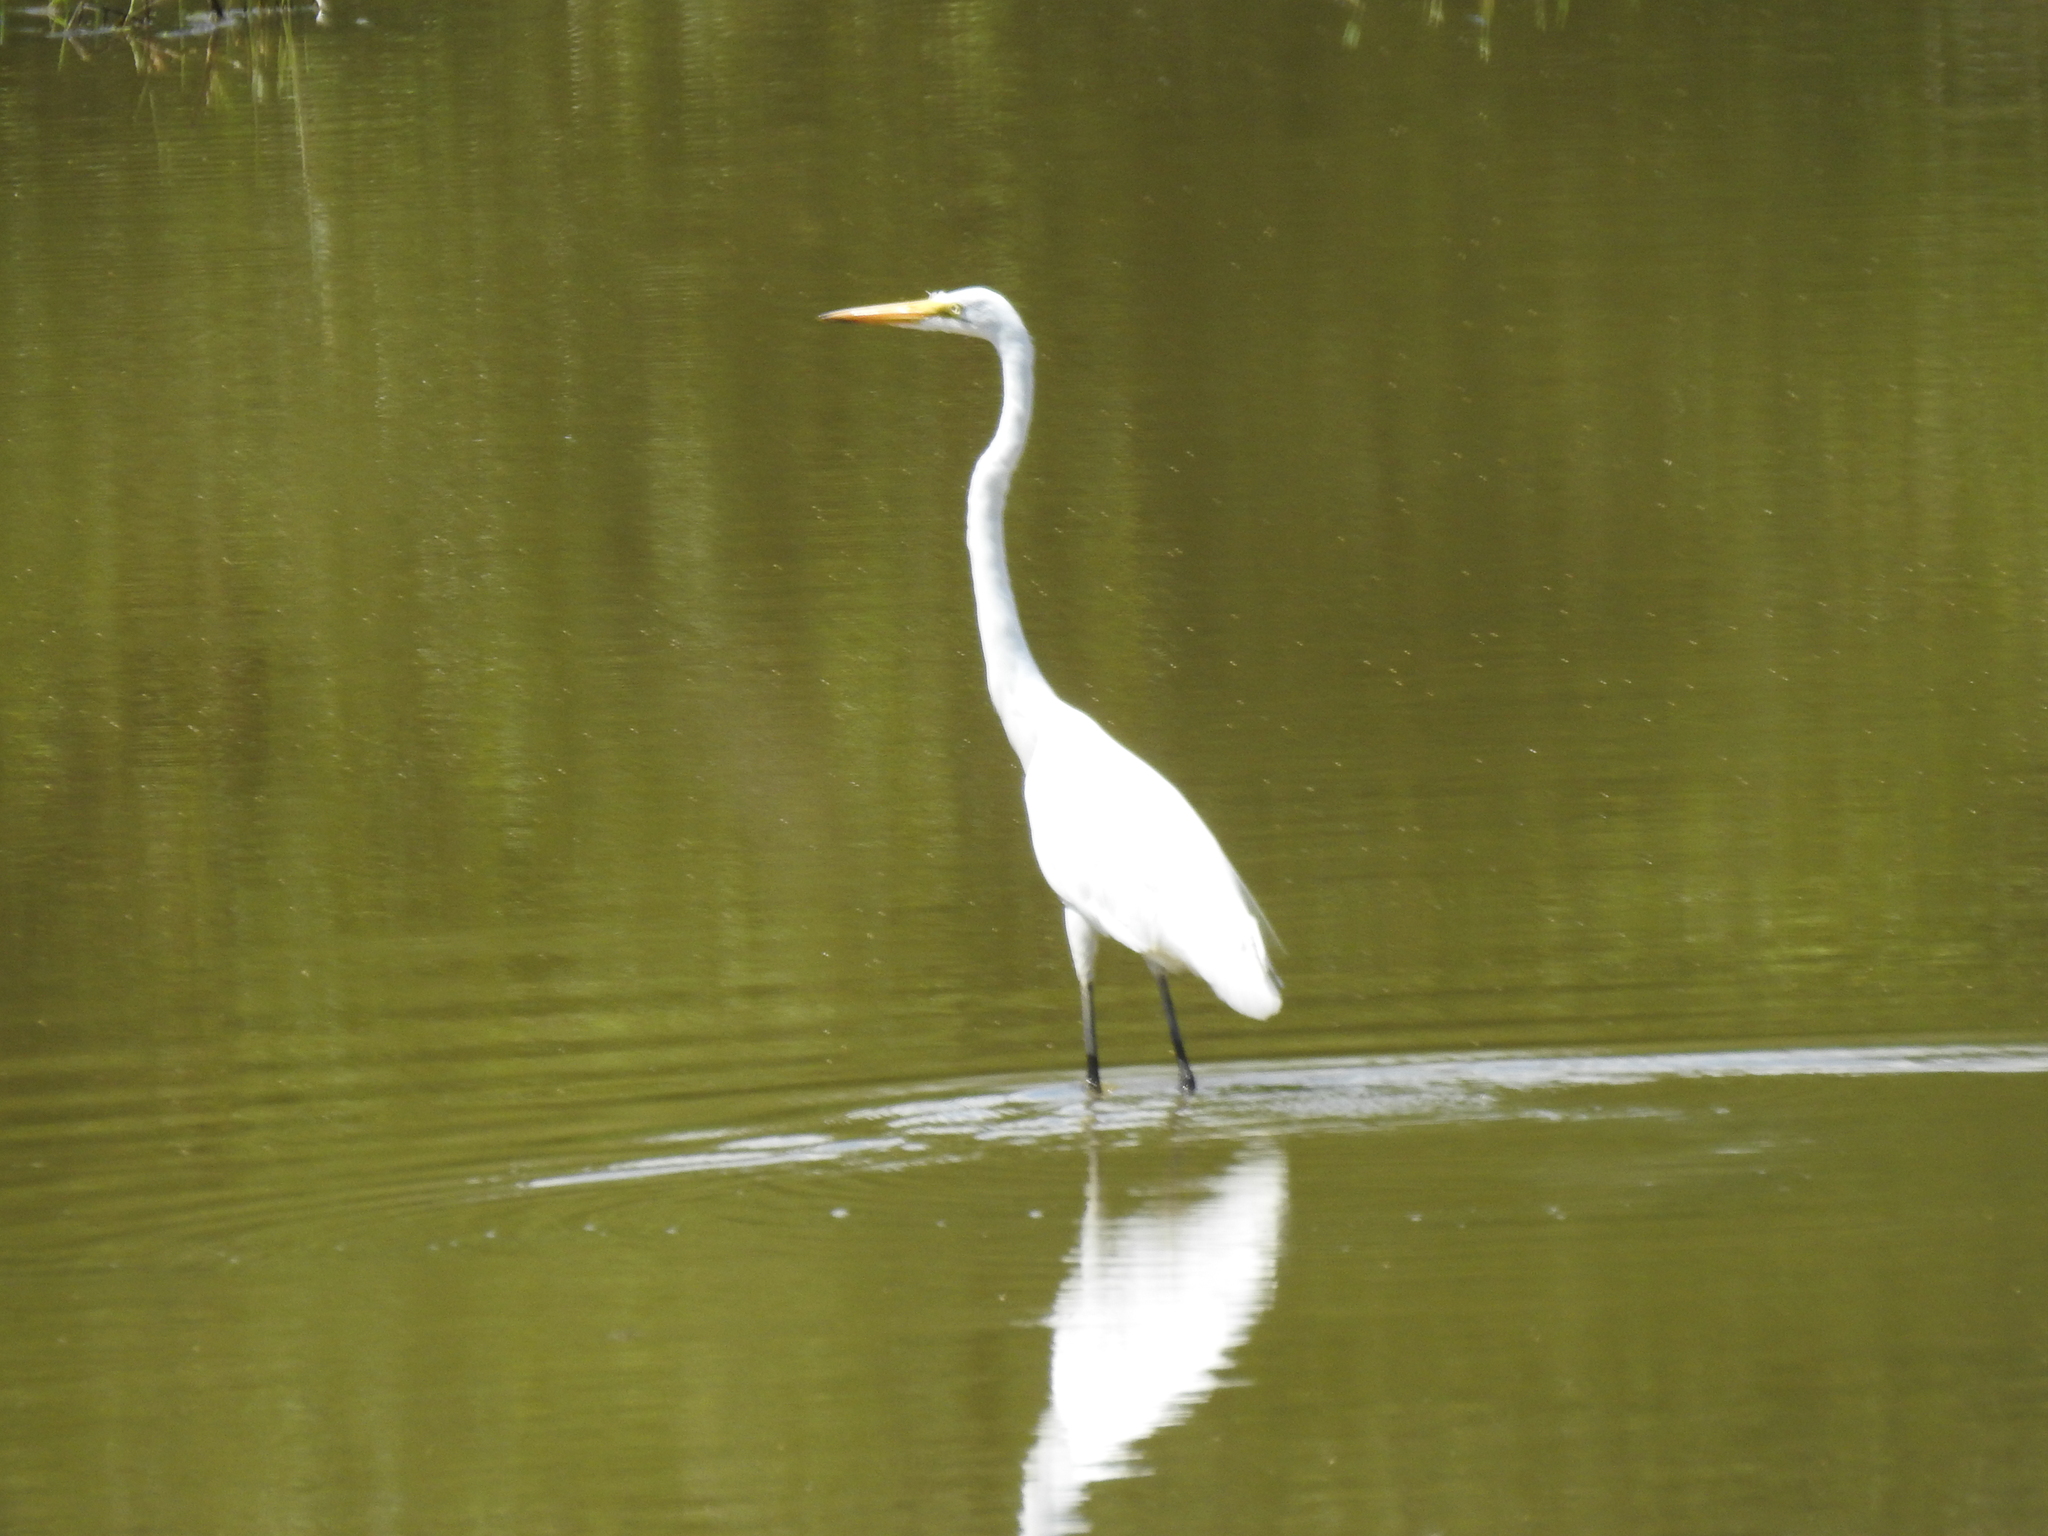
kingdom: Animalia
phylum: Chordata
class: Aves
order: Pelecaniformes
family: Ardeidae
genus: Ardea
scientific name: Ardea alba
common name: Great egret
